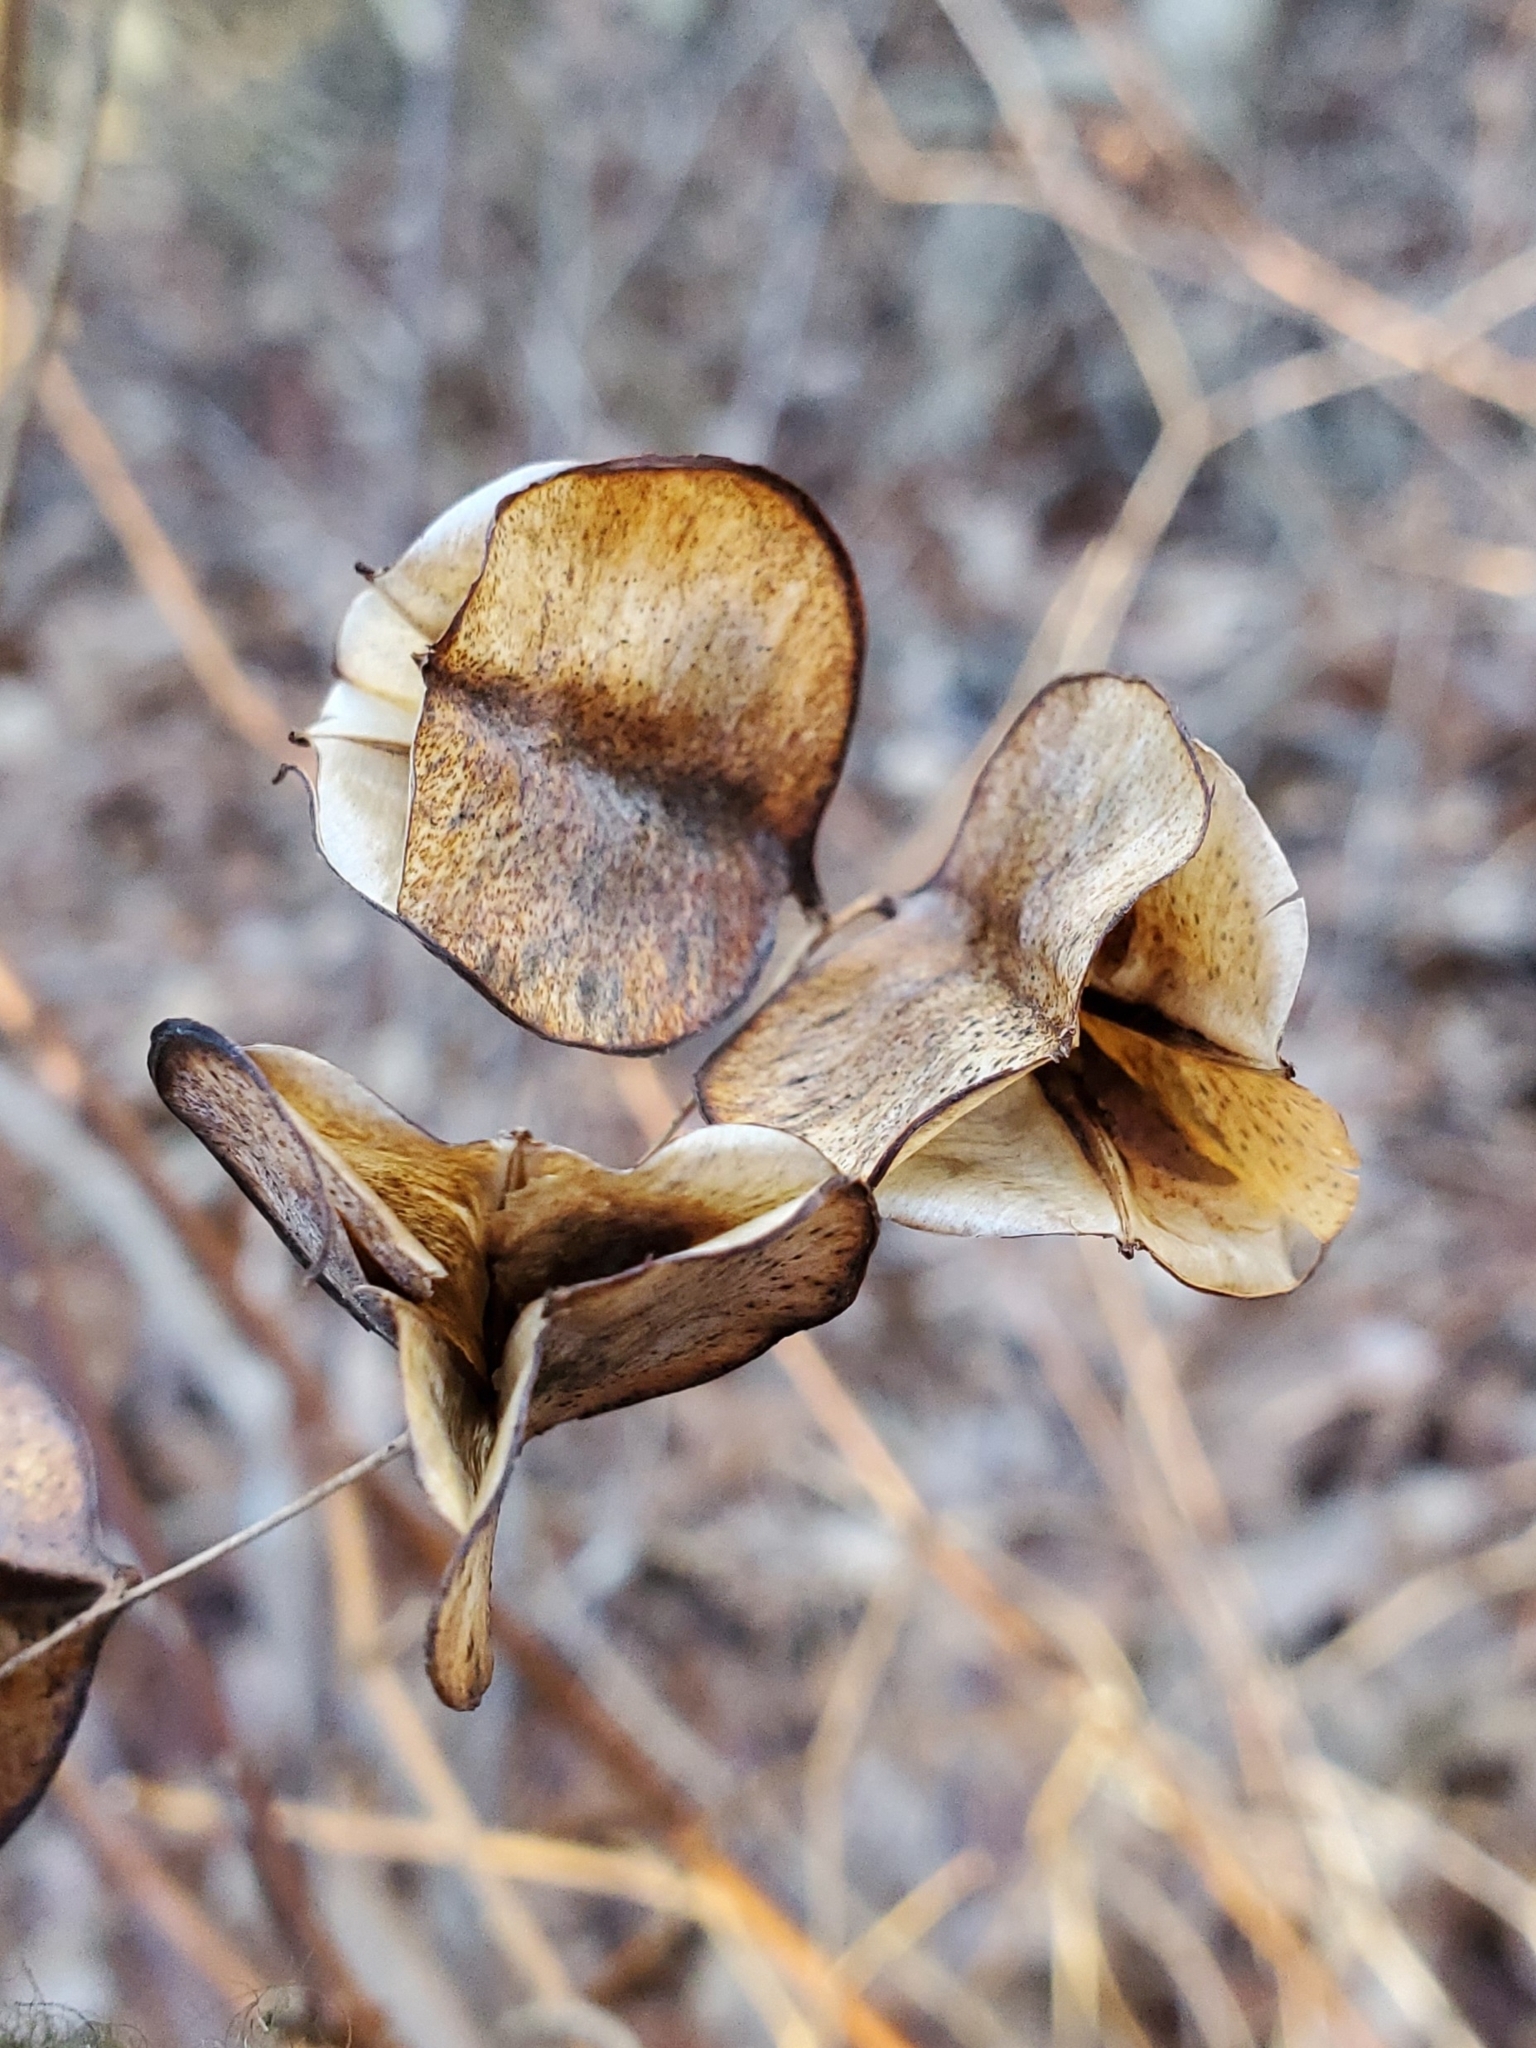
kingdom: Plantae
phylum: Tracheophyta
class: Liliopsida
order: Dioscoreales
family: Dioscoreaceae
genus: Dioscorea
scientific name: Dioscorea villosa
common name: Wild yam
